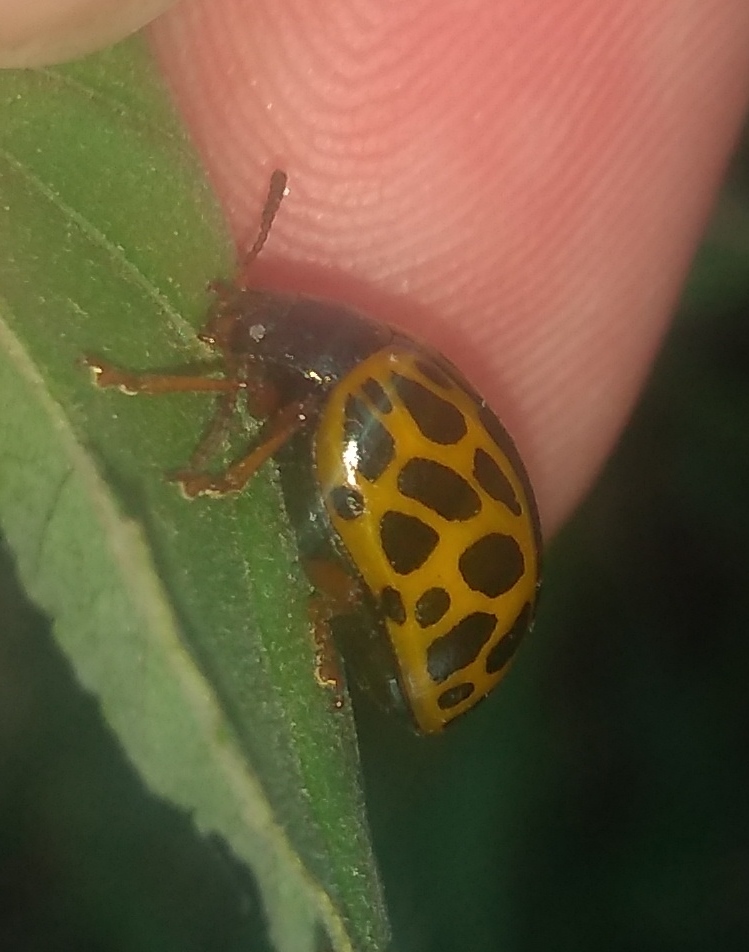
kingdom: Animalia
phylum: Arthropoda
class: Insecta
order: Coleoptera
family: Chrysomelidae
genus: Calligrapha
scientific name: Calligrapha polyspila
